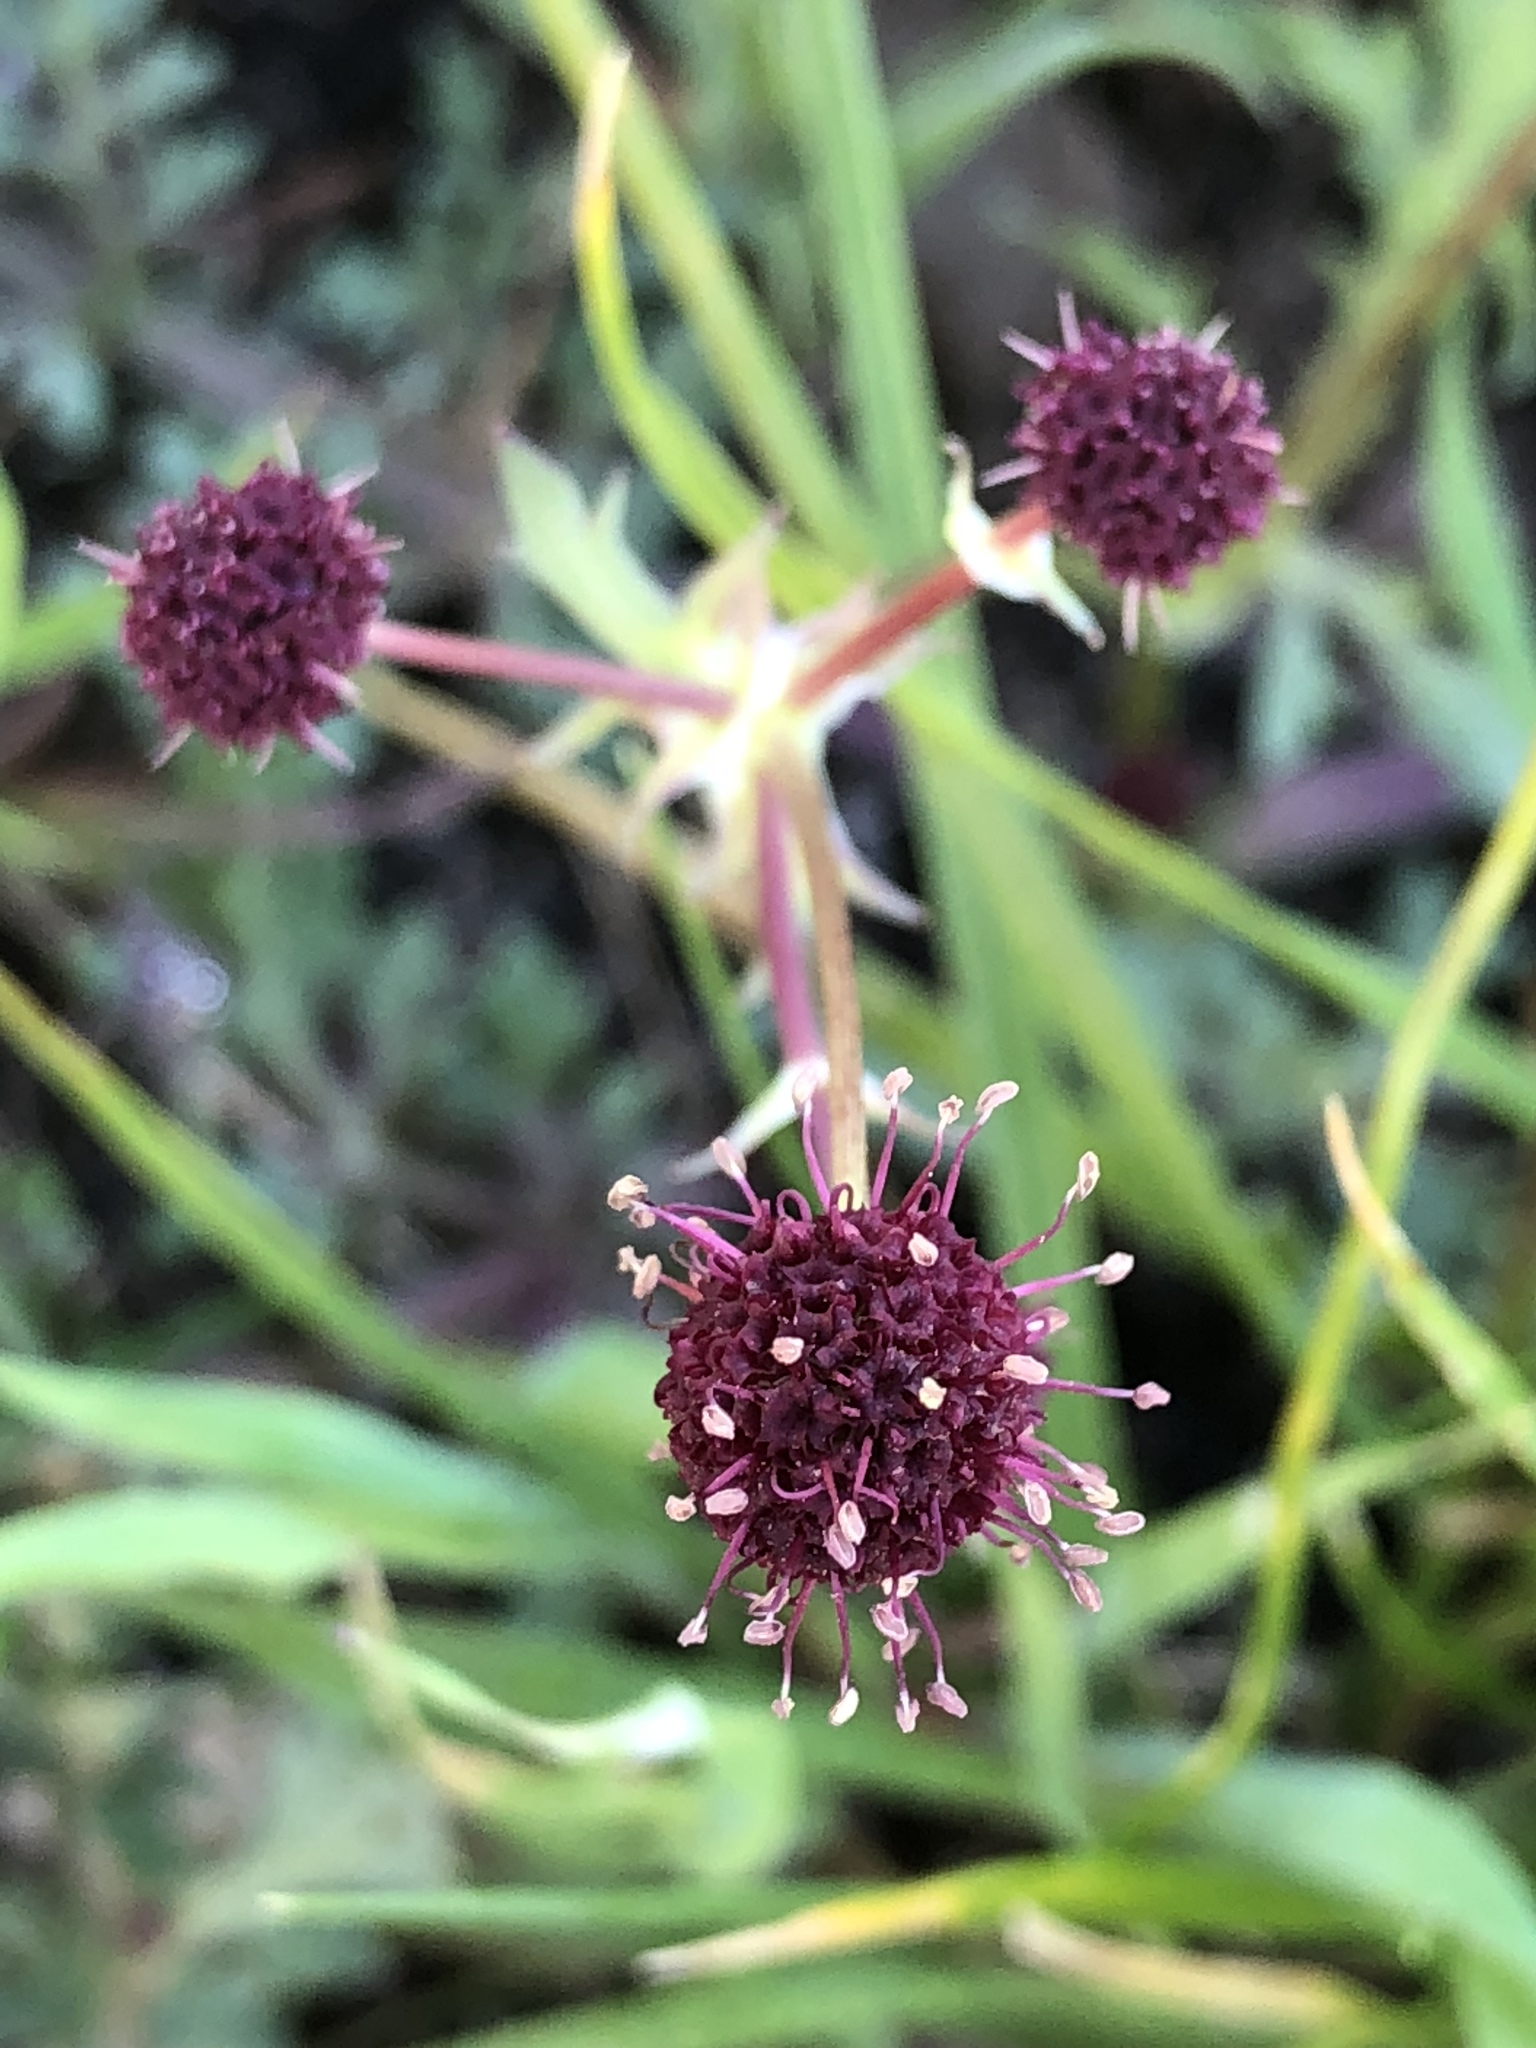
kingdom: Plantae
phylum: Tracheophyta
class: Magnoliopsida
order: Apiales
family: Apiaceae
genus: Sanicula
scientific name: Sanicula bipinnatifida
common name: Shoe-buttons
